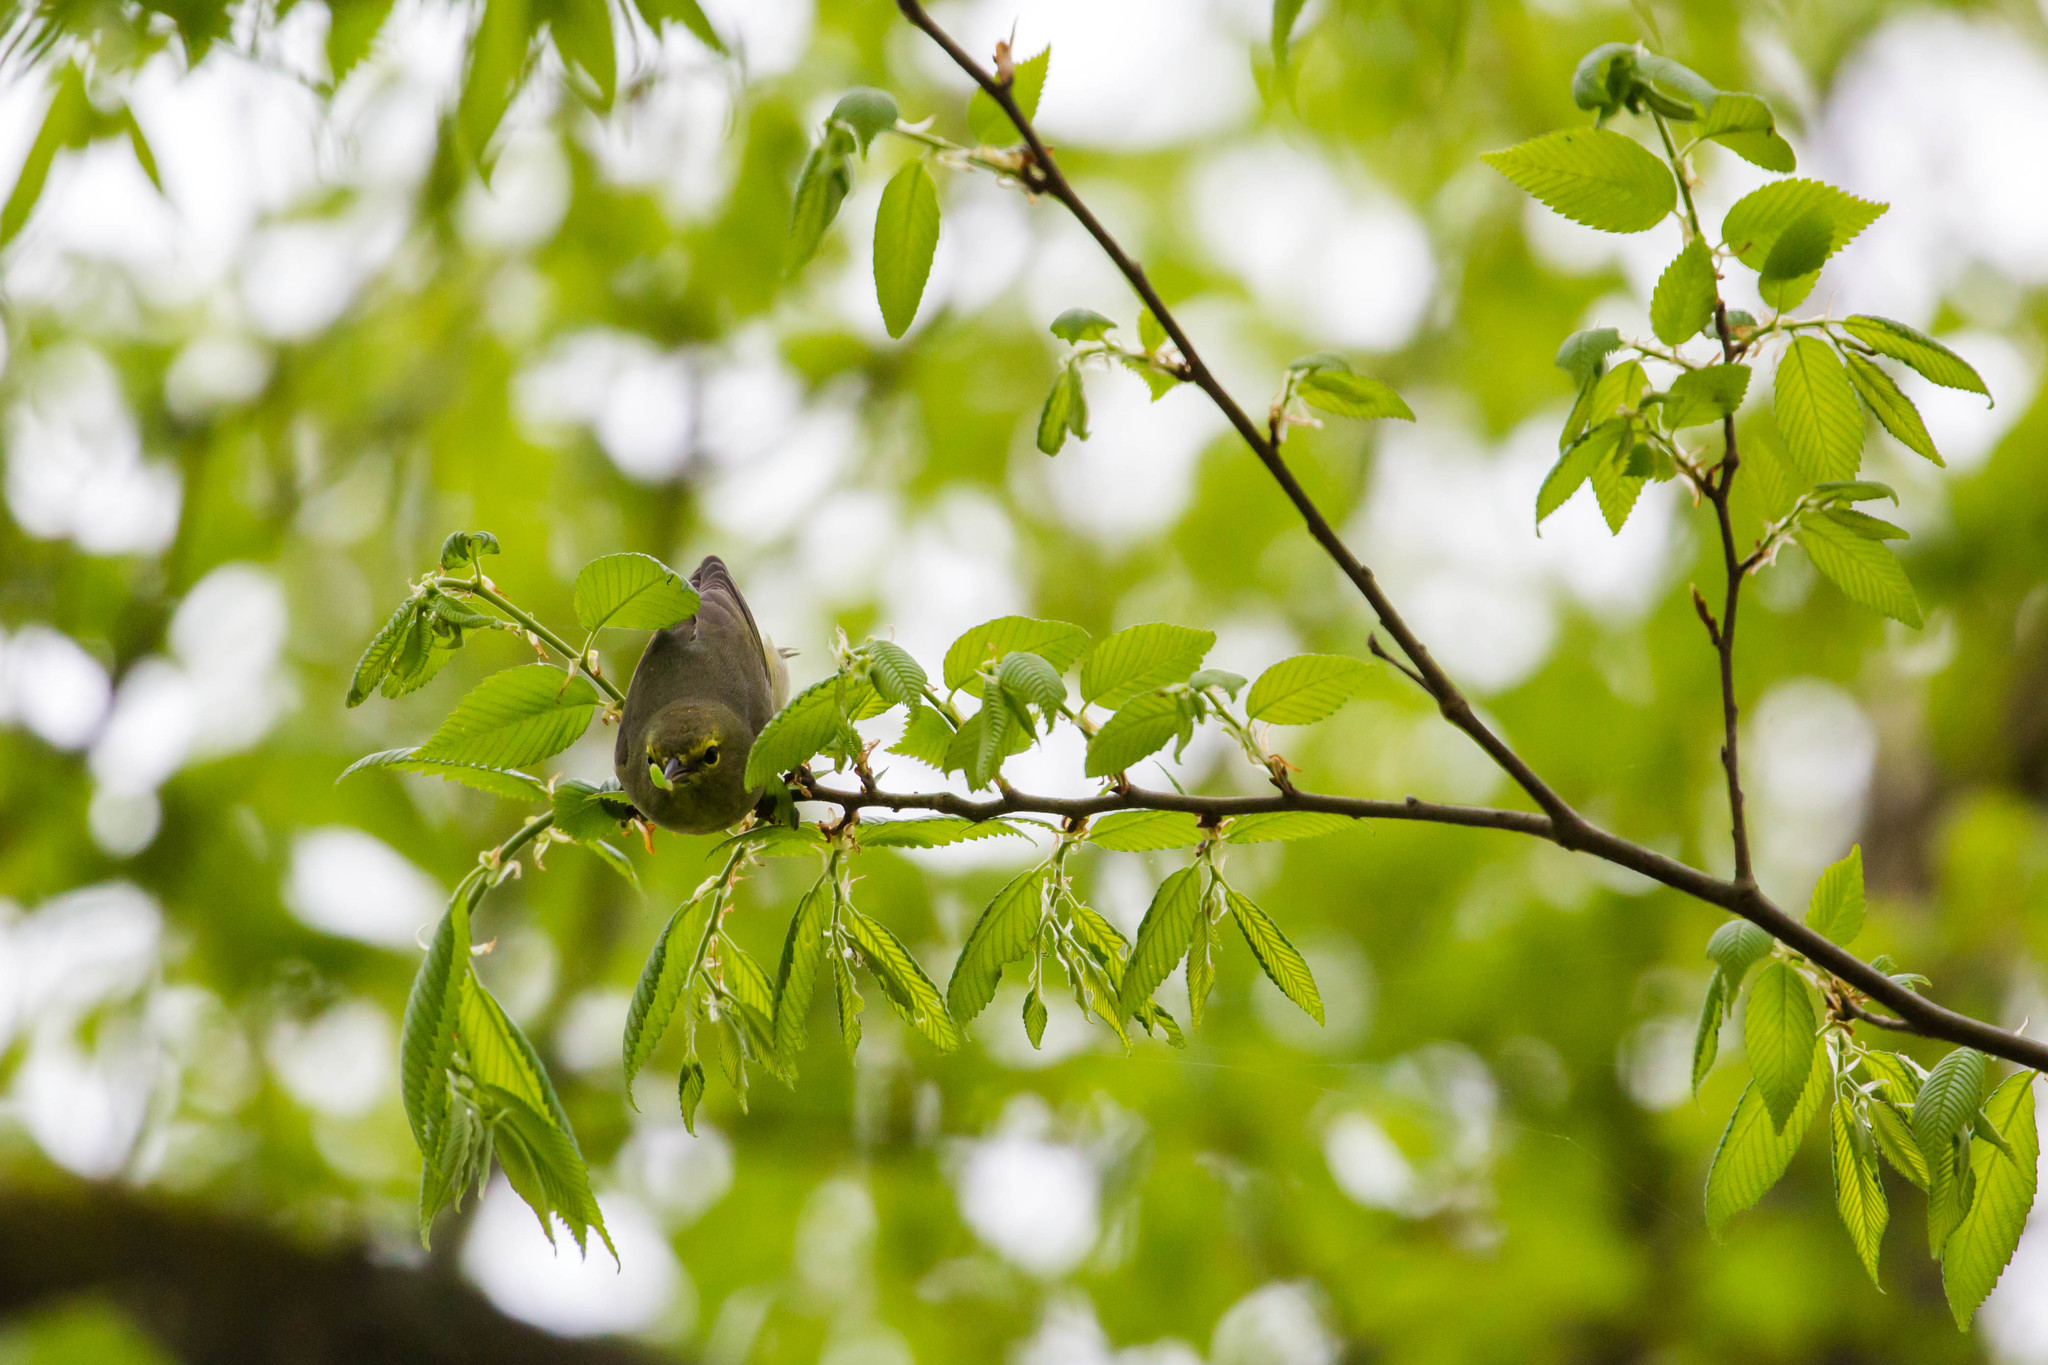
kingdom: Animalia
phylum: Chordata
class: Aves
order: Passeriformes
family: Parulidae
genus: Leiothlypis
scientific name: Leiothlypis celata
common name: Orange-crowned warbler
